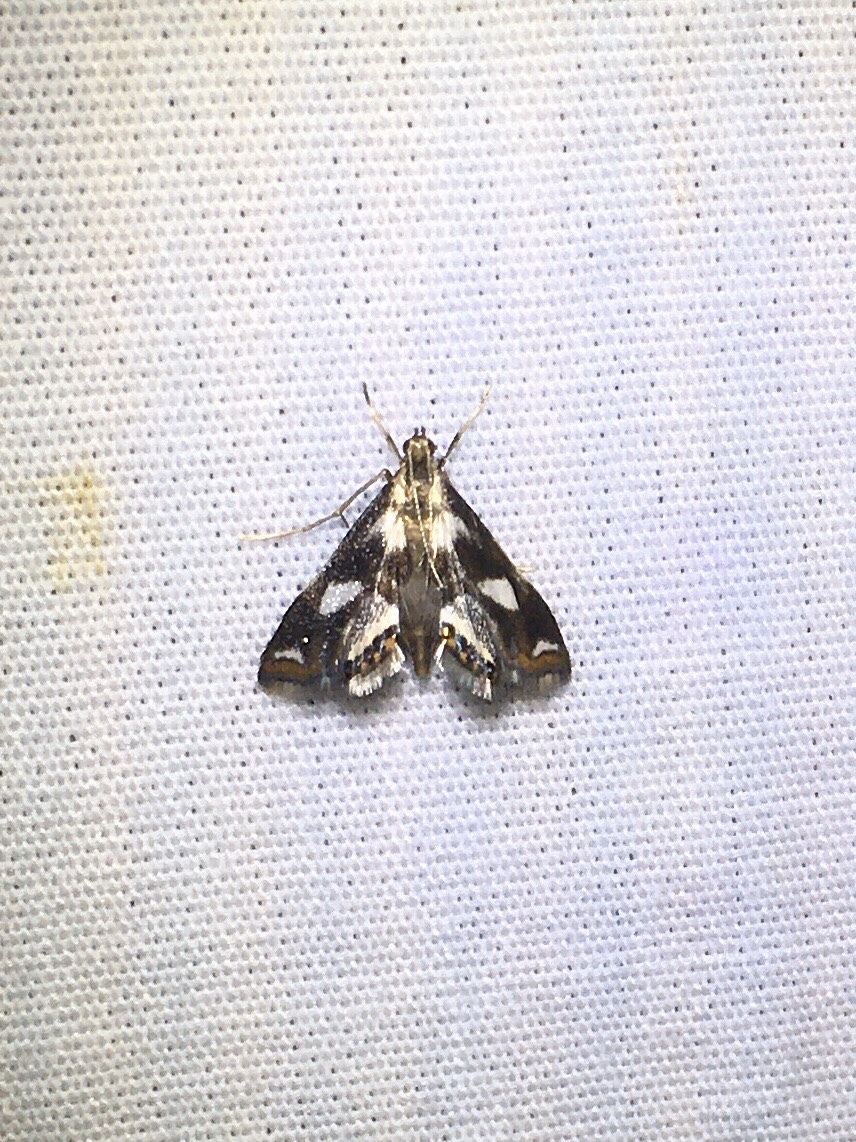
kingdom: Animalia
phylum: Arthropoda
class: Insecta
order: Lepidoptera
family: Crambidae
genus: Chrysendeton
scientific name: Chrysendeton imitabilis
